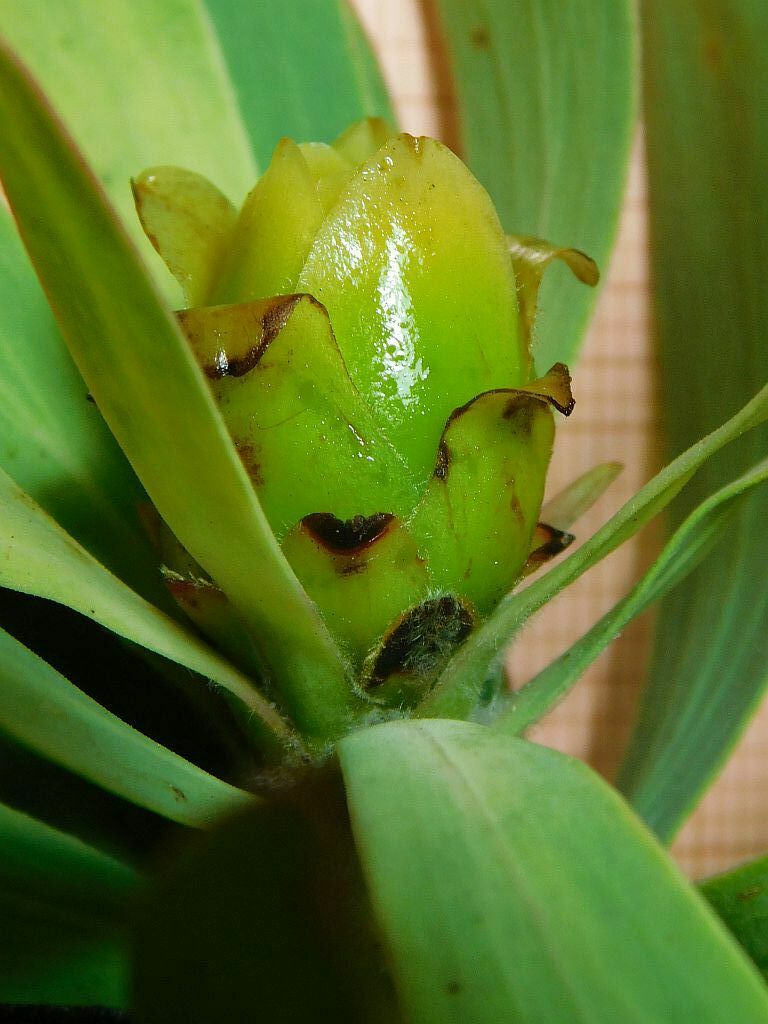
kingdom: Plantae
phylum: Tracheophyta
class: Magnoliopsida
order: Proteales
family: Proteaceae
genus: Leucadendron
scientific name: Leucadendron burchellii
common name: Riviersonderend conebush
